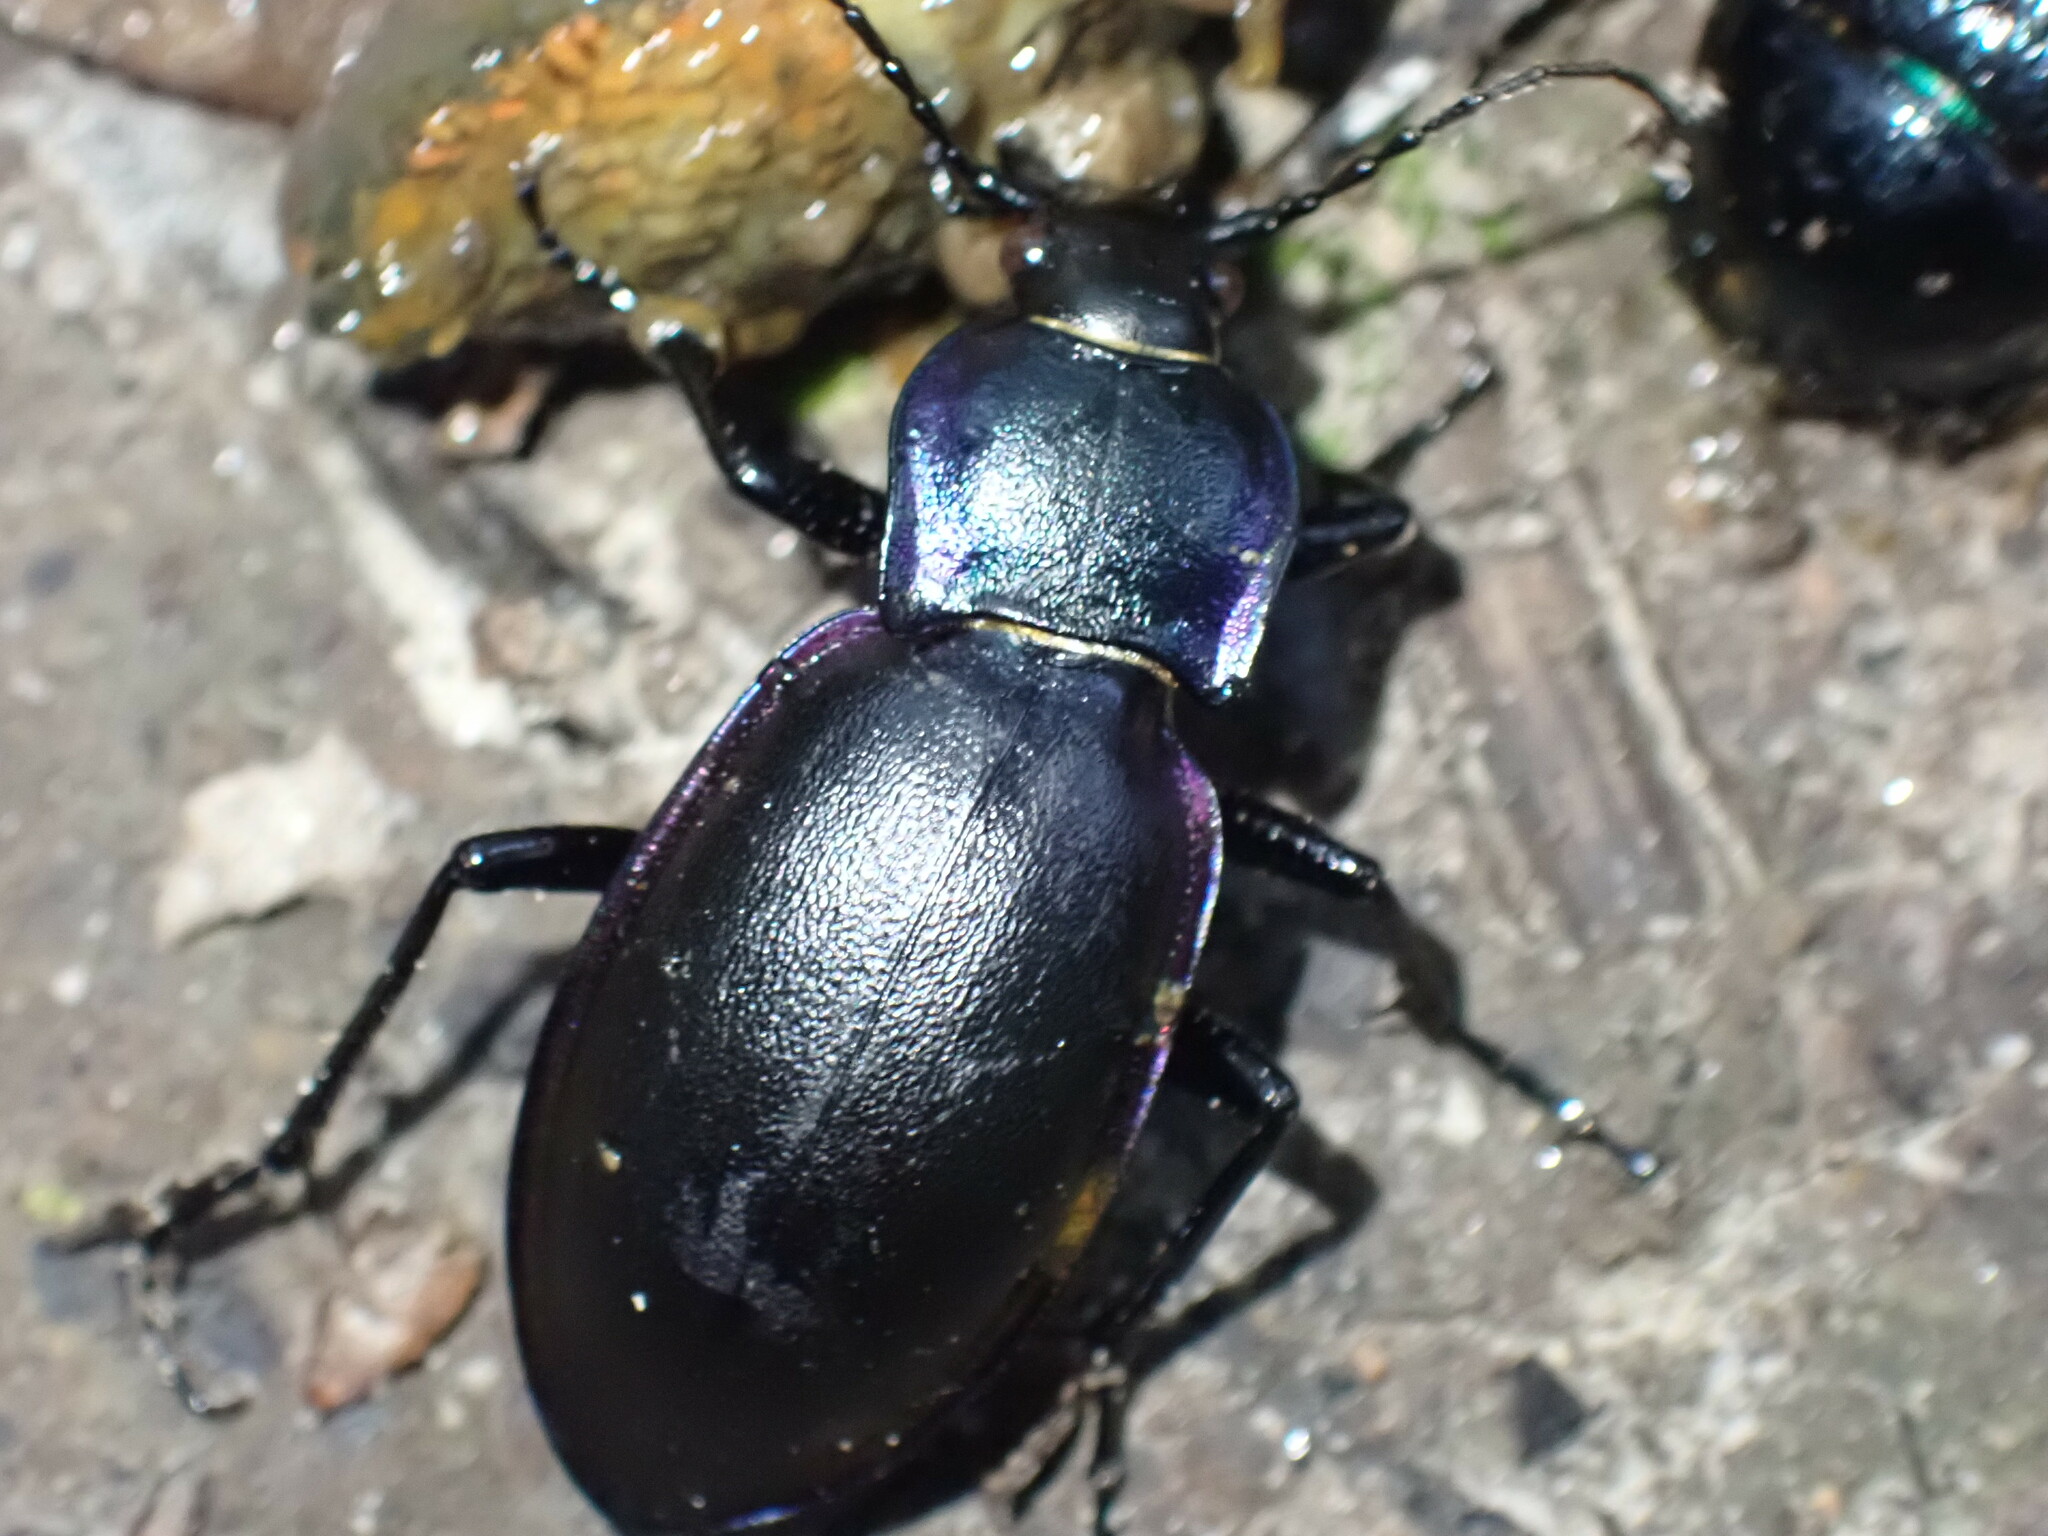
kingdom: Animalia
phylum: Arthropoda
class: Insecta
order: Coleoptera
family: Carabidae
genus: Carabus
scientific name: Carabus violaceus
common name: Violet ground beetle
